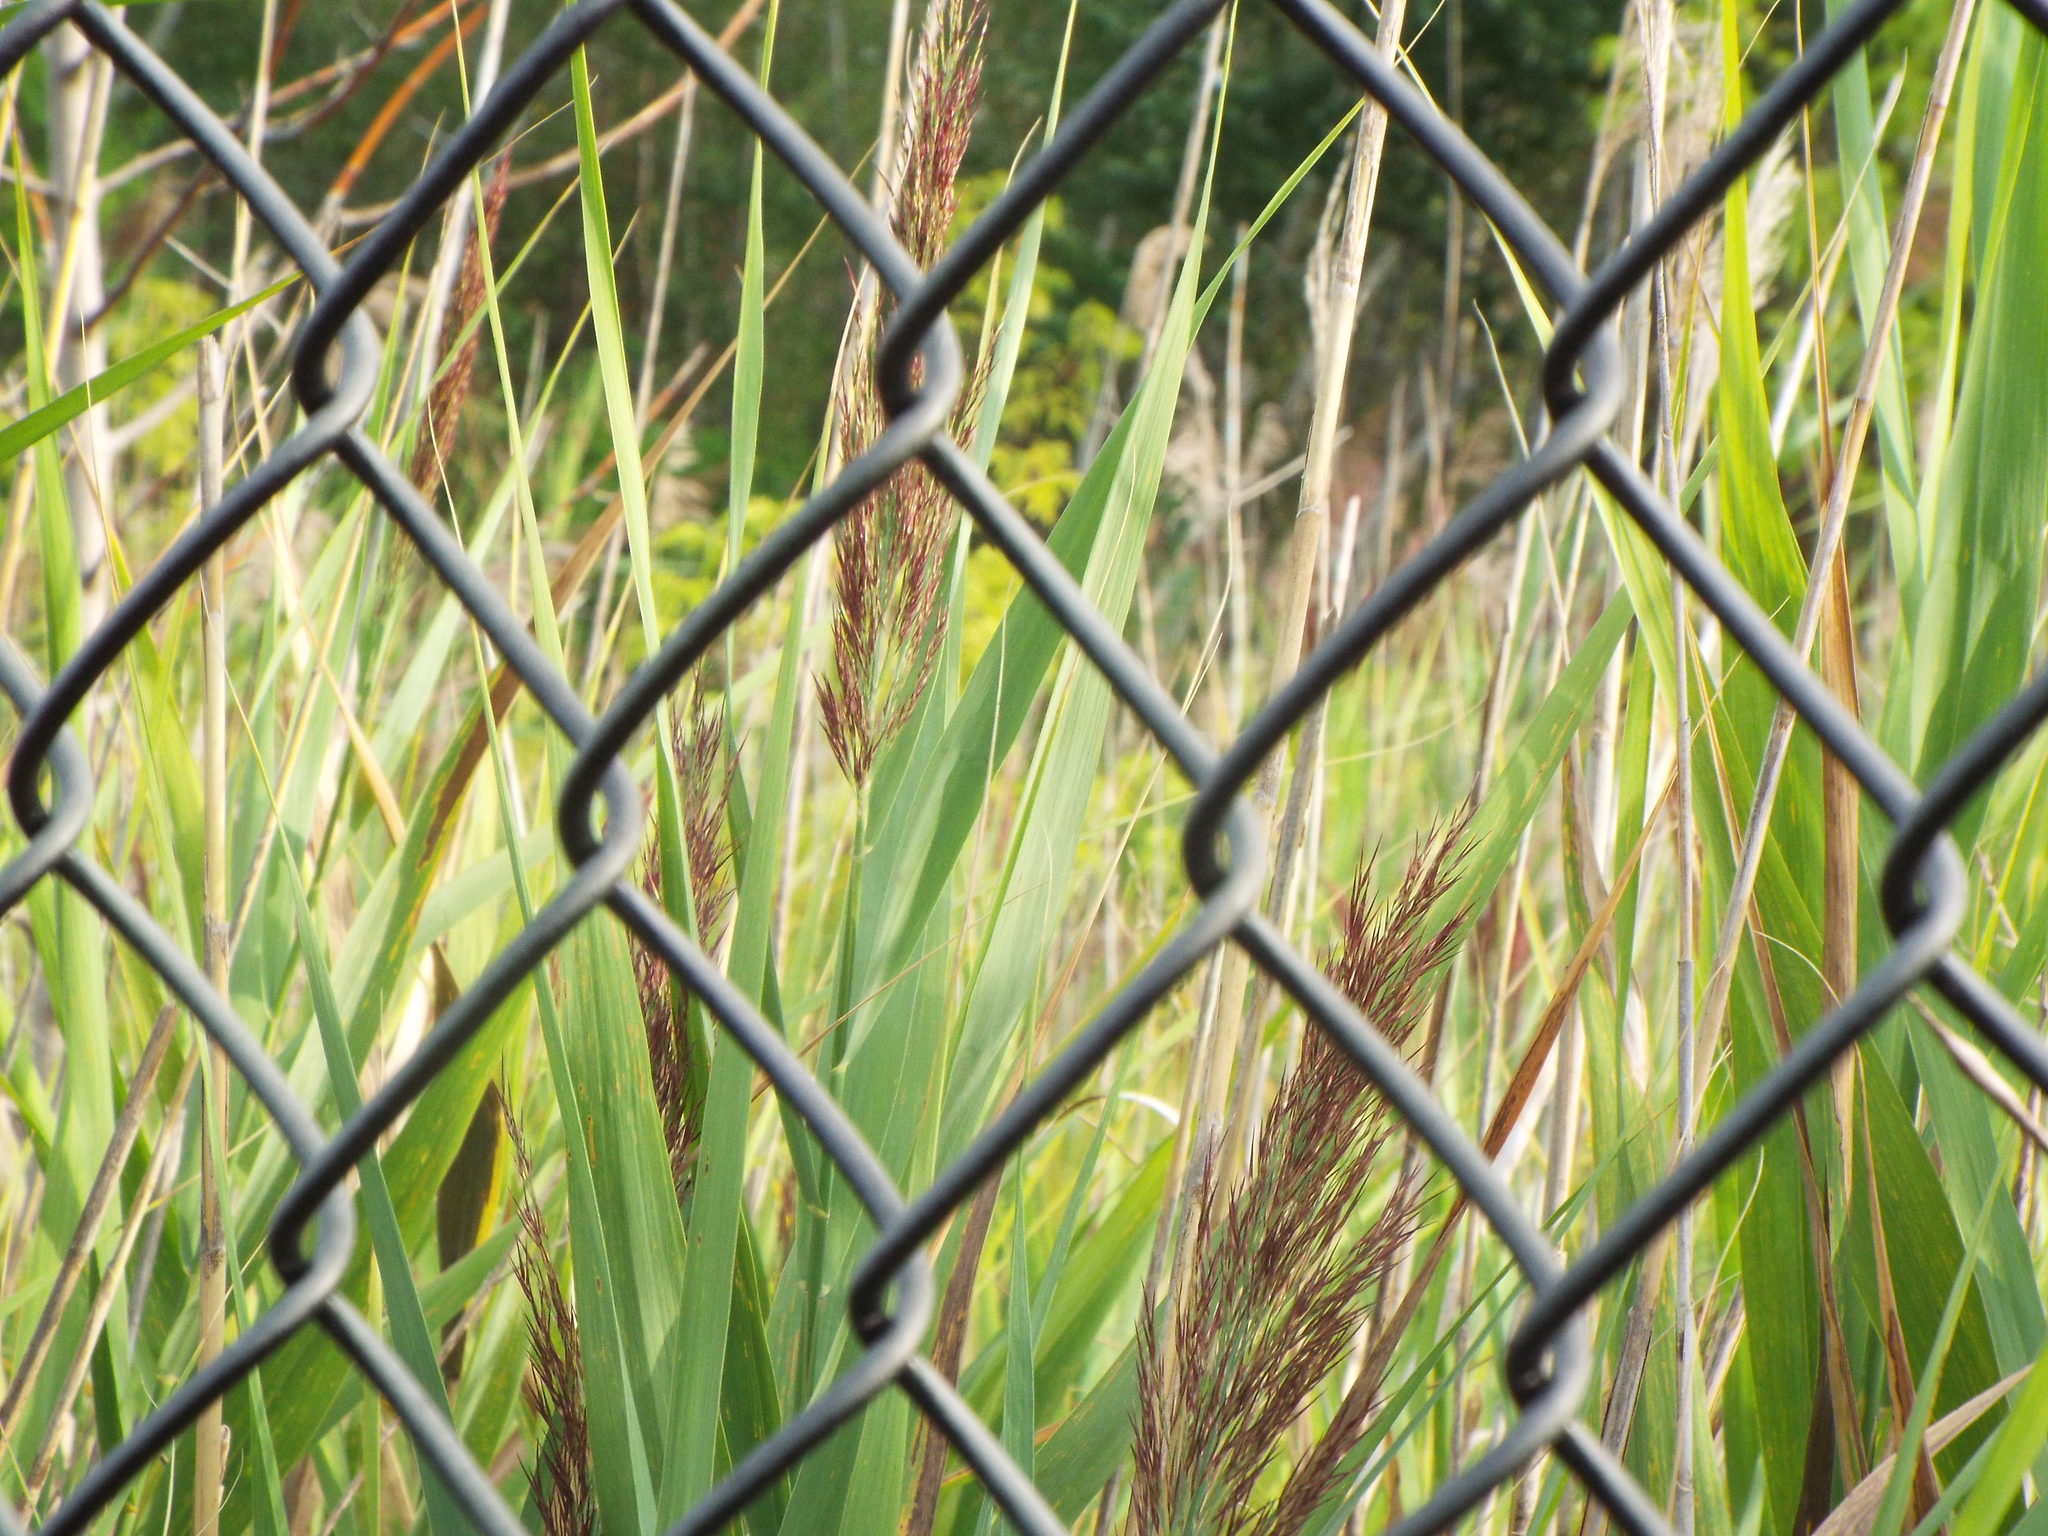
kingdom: Plantae
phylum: Tracheophyta
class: Liliopsida
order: Poales
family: Poaceae
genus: Phragmites
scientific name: Phragmites australis
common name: Common reed
